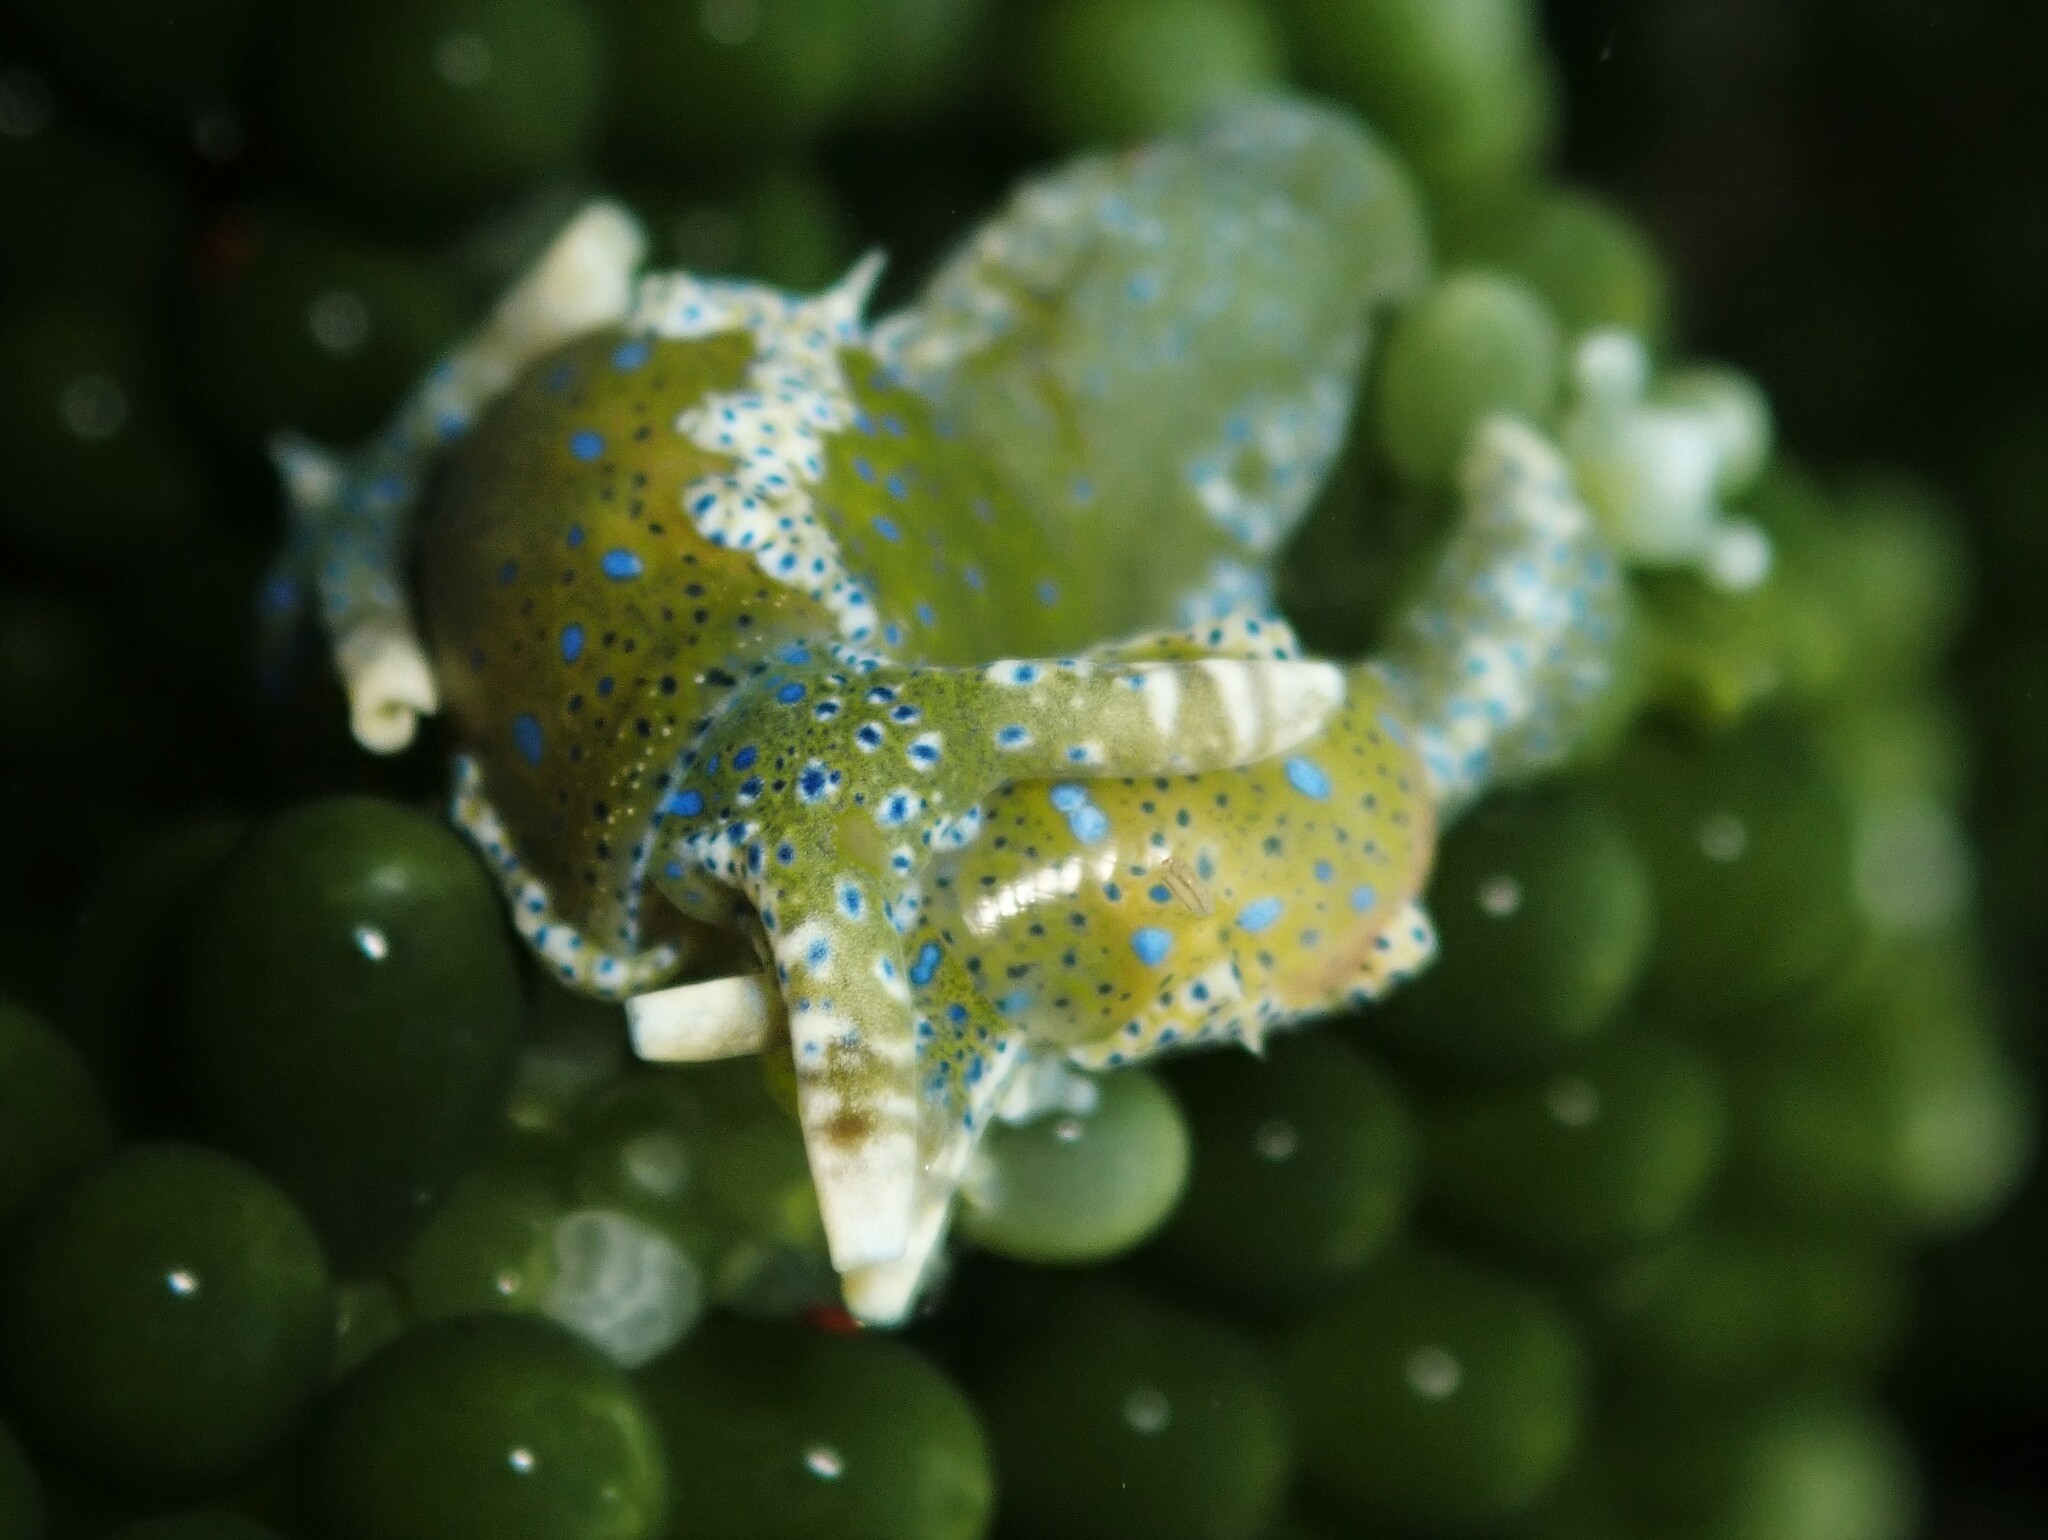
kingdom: Animalia
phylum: Mollusca
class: Gastropoda
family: Oxynoidae
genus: Oxynoe
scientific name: Oxynoe viridis
